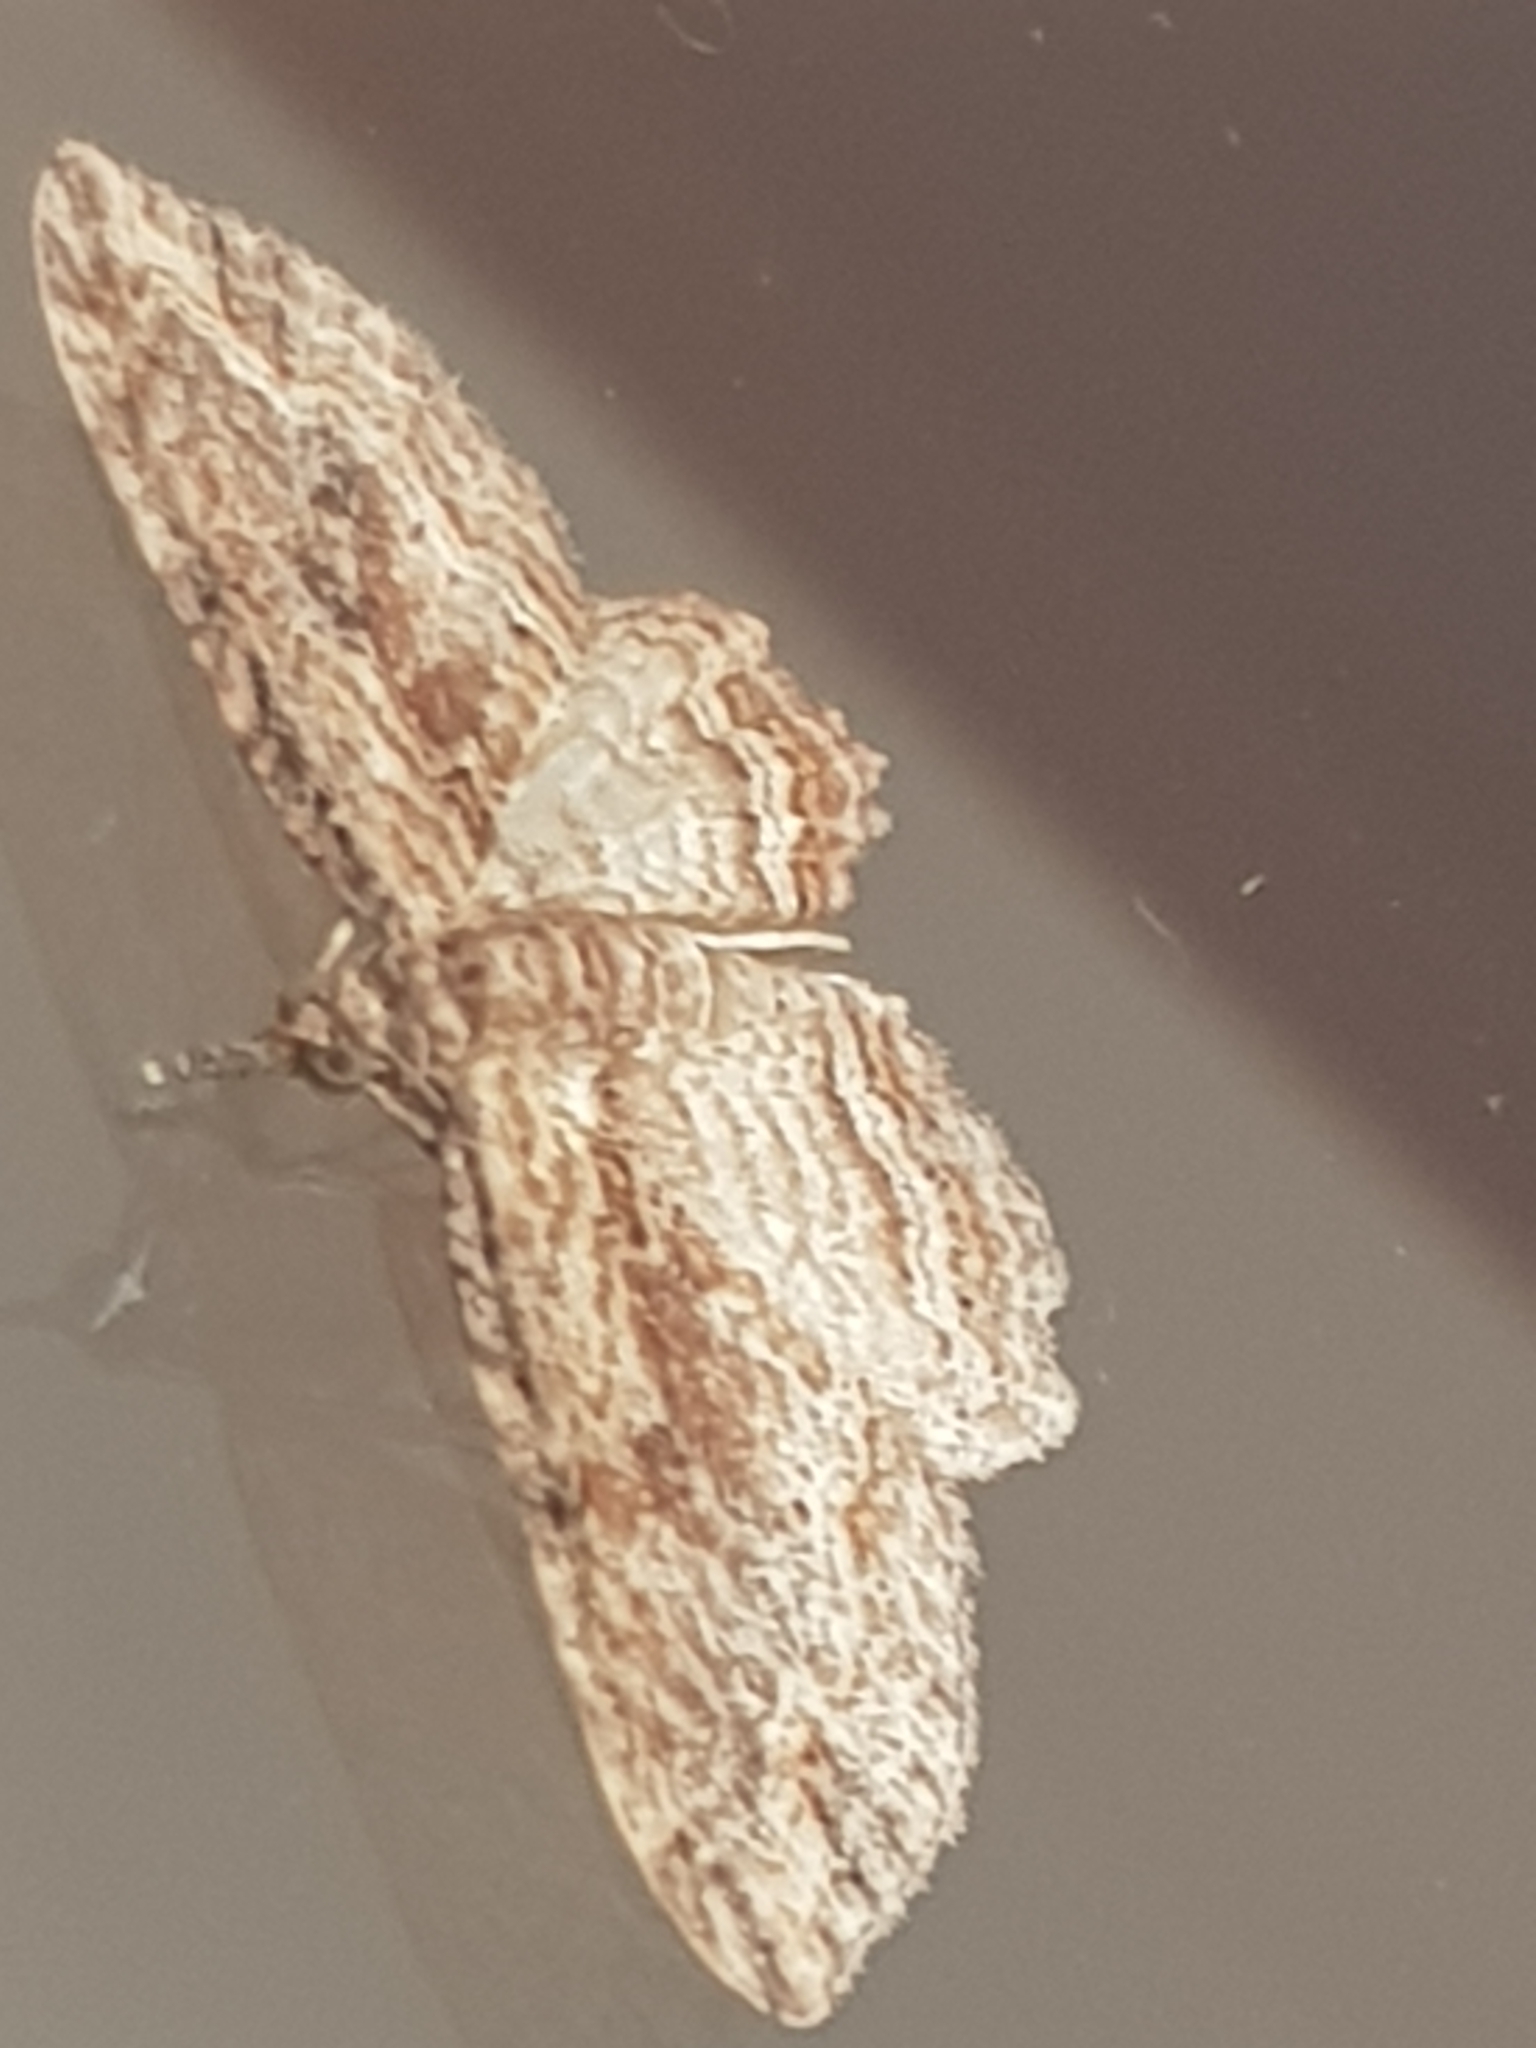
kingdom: Animalia
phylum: Arthropoda
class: Insecta
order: Lepidoptera
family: Geometridae
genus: Chloroclystis
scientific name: Chloroclystis filata
